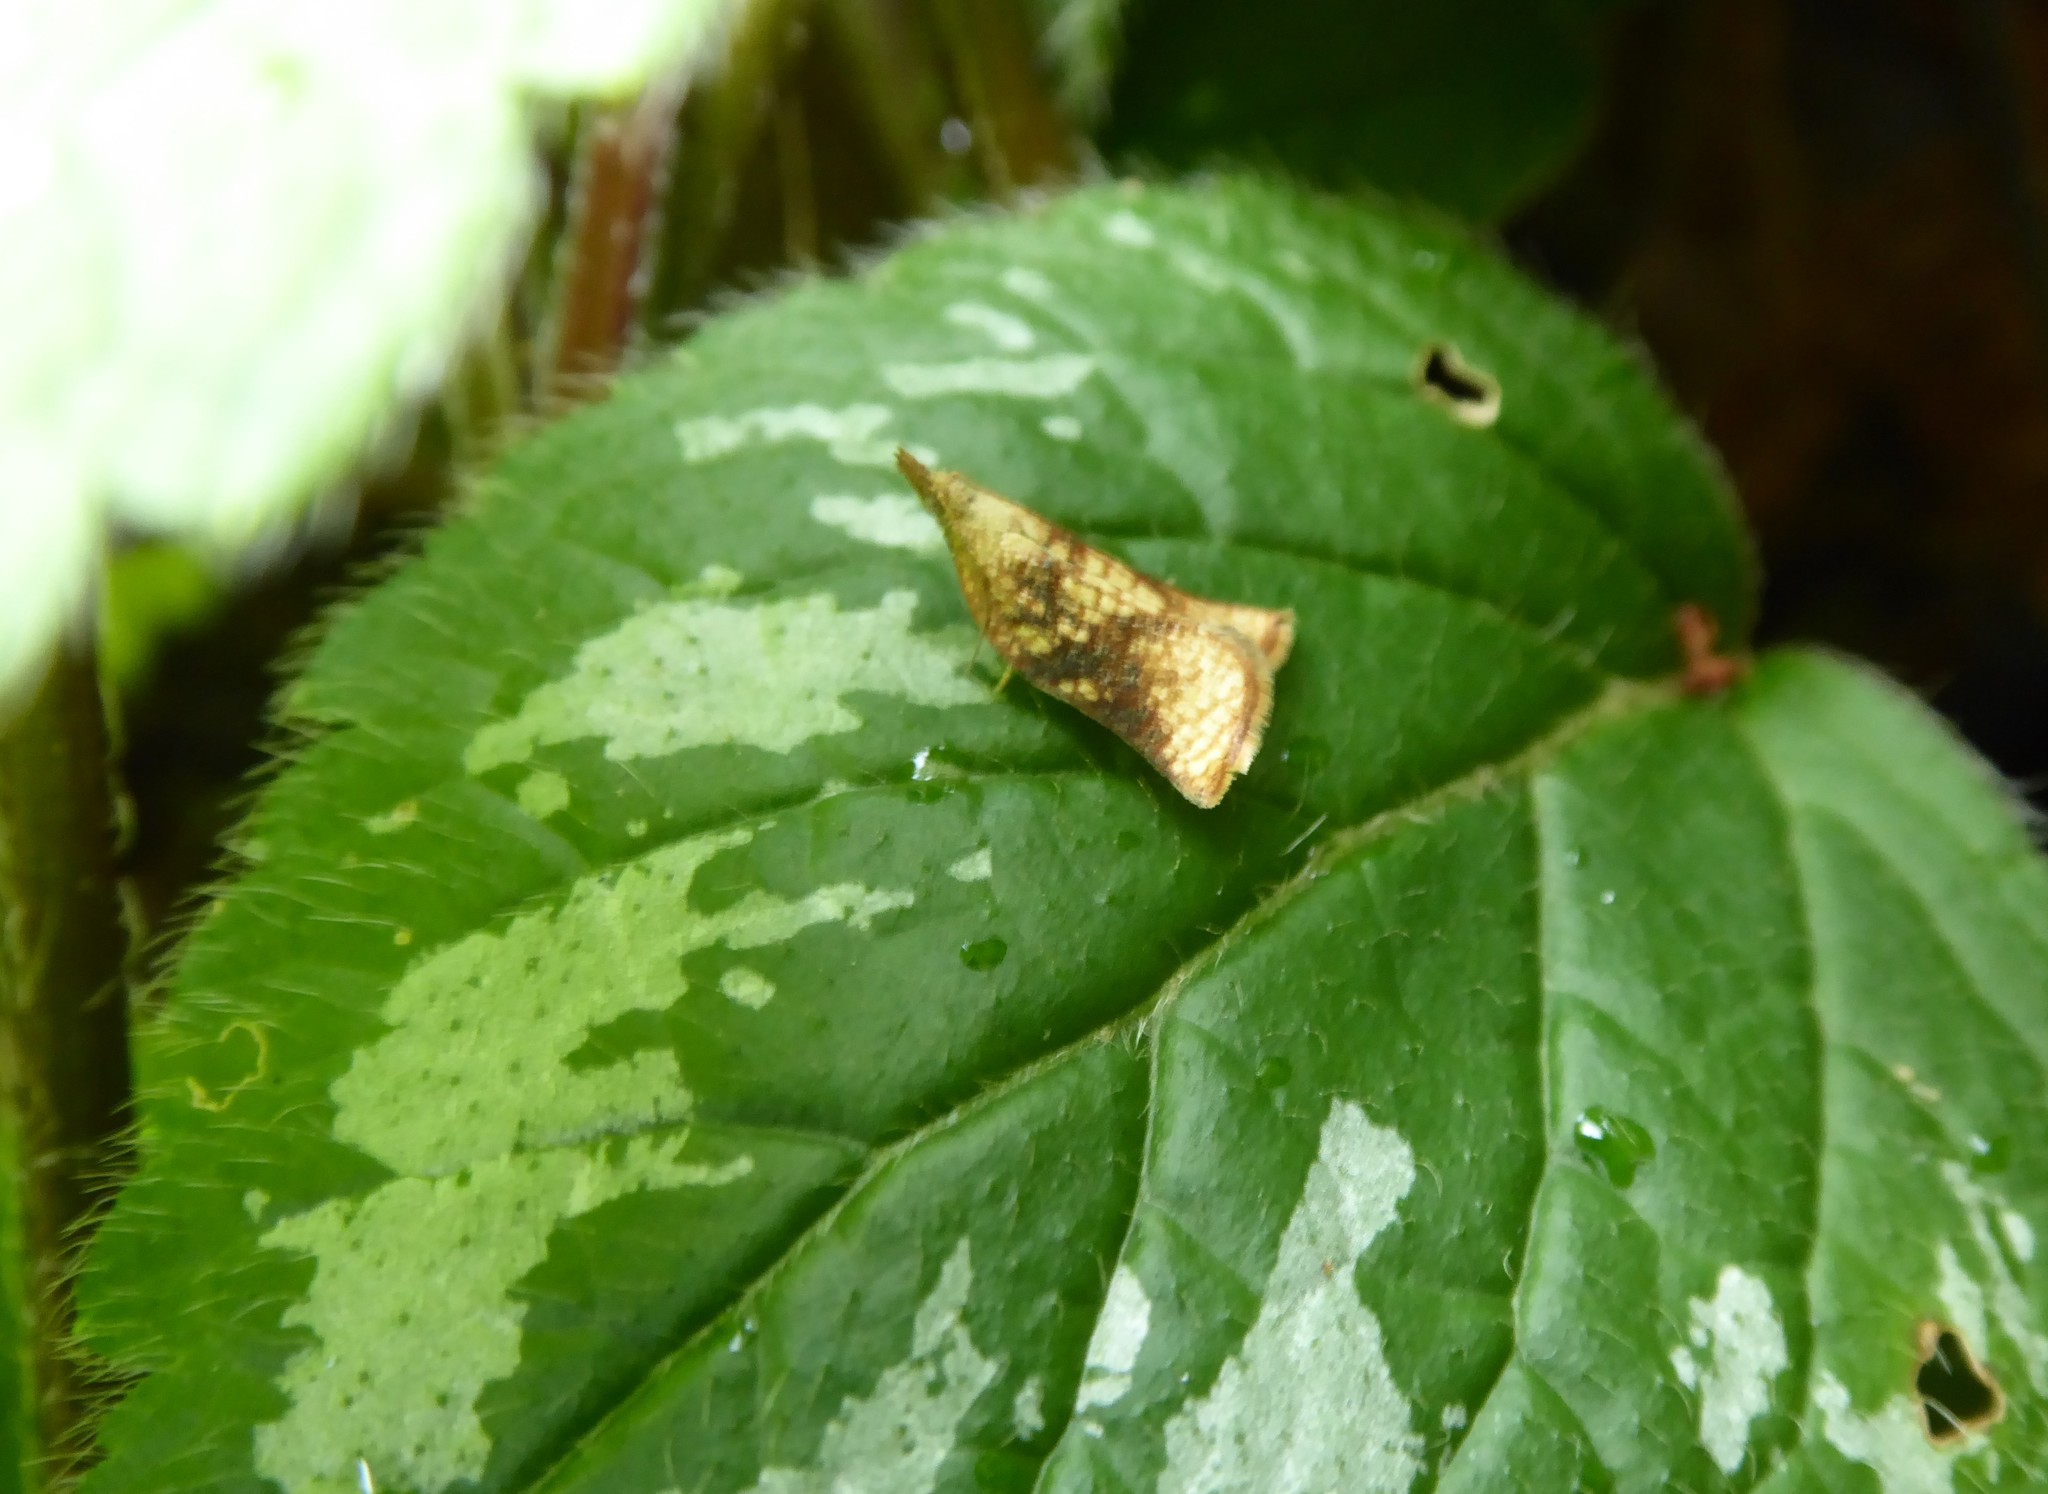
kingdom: Animalia
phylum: Arthropoda
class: Insecta
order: Lepidoptera
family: Tortricidae
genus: Catamacta
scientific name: Catamacta gavisana
